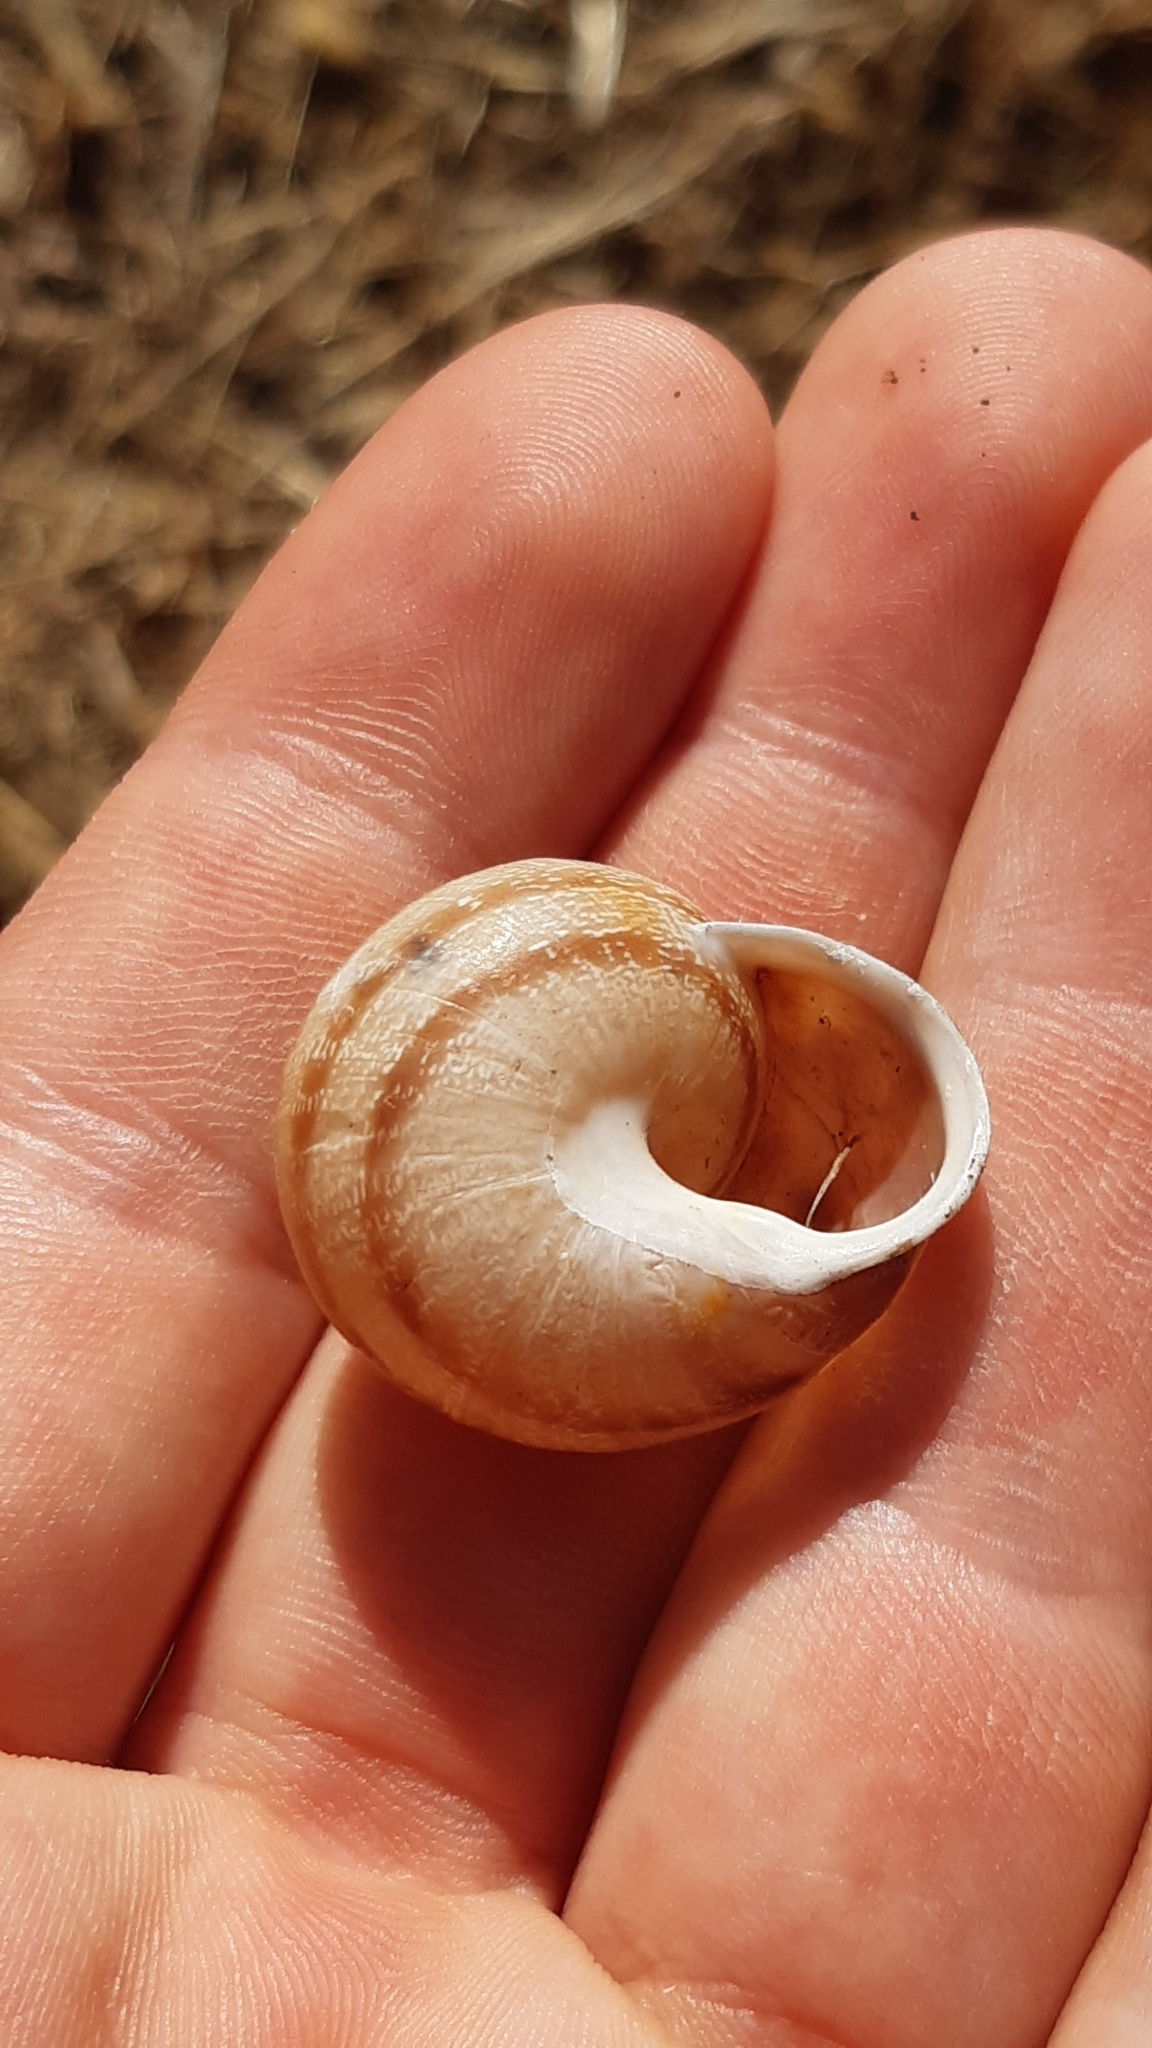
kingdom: Animalia
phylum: Mollusca
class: Gastropoda
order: Stylommatophora
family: Helicidae
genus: Eobania
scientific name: Eobania vermiculata
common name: Chocolateband snail
